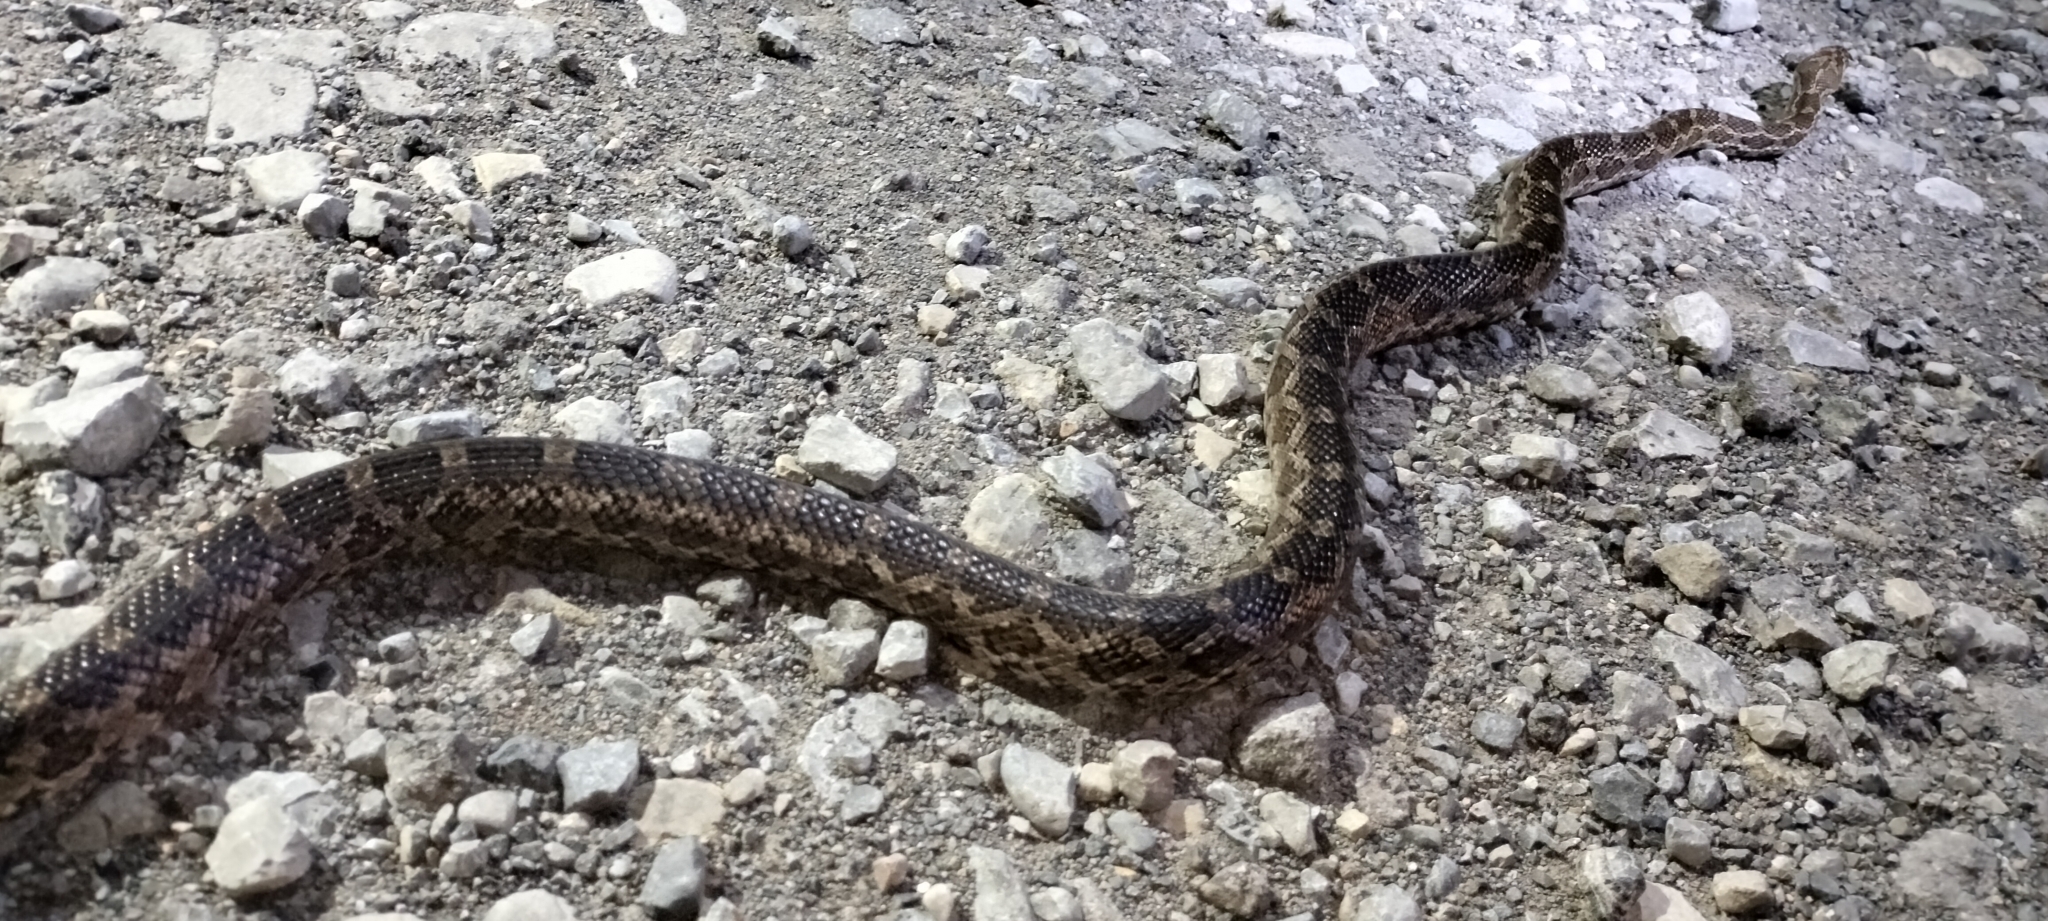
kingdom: Animalia
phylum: Chordata
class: Squamata
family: Colubridae
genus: Pantherophis
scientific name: Pantherophis emoryi
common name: Great plains rat snake
